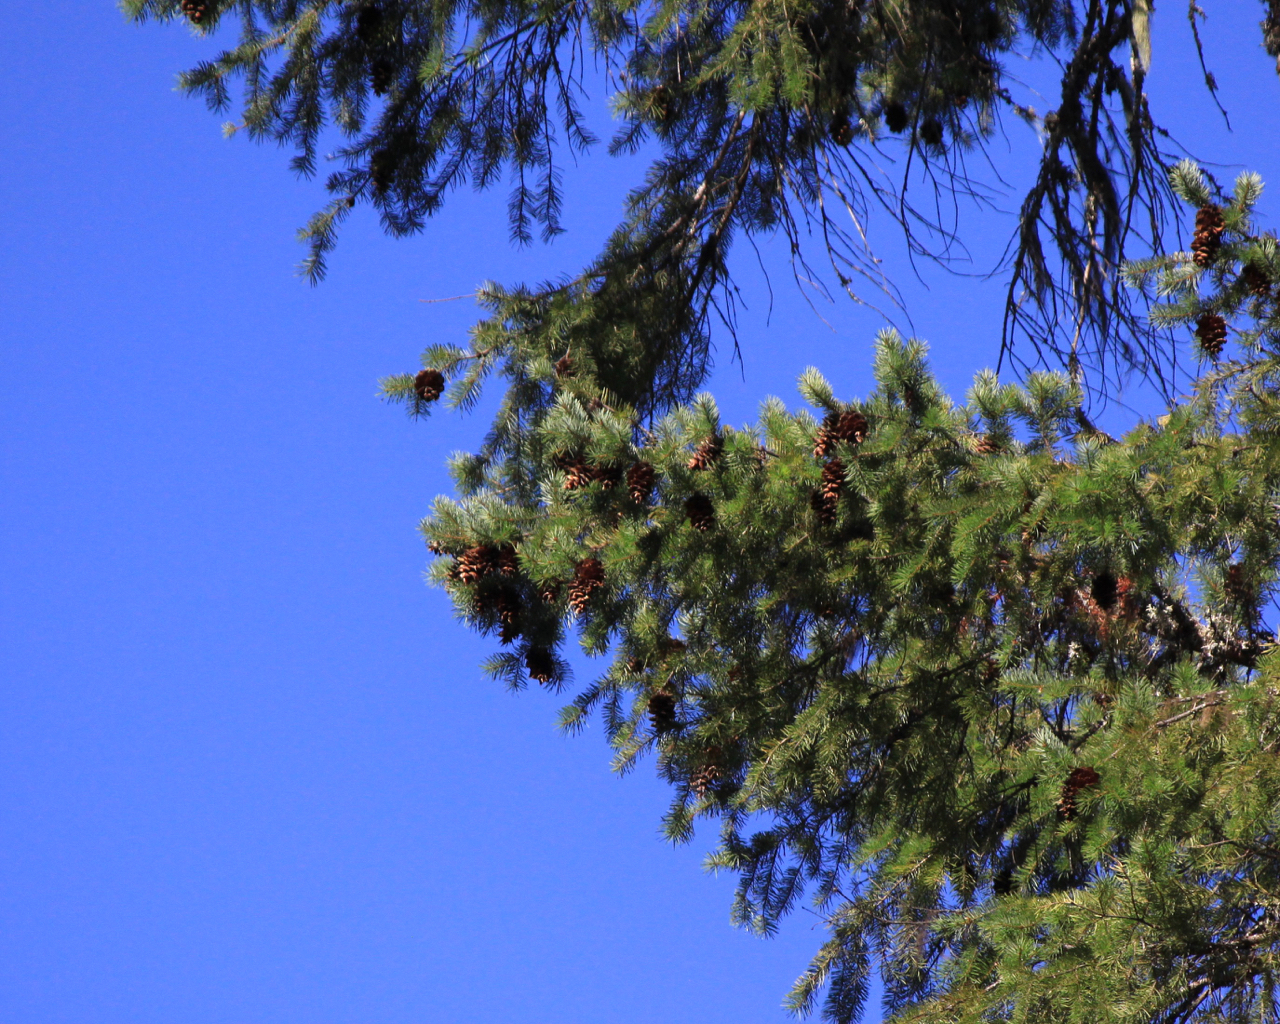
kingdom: Plantae
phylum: Tracheophyta
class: Pinopsida
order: Pinales
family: Pinaceae
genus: Pseudotsuga
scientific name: Pseudotsuga menziesii
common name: Douglas fir
